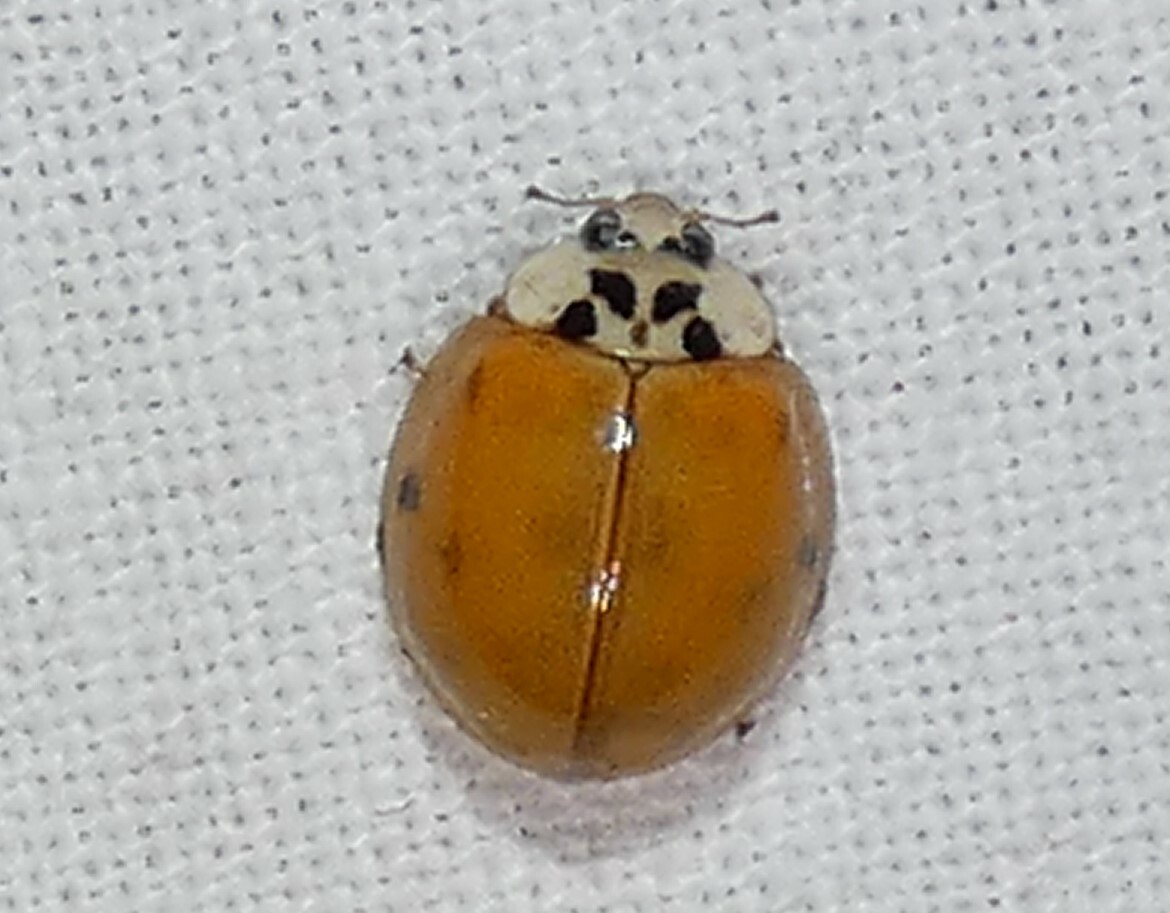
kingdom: Animalia
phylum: Arthropoda
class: Insecta
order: Coleoptera
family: Coccinellidae
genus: Harmonia
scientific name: Harmonia axyridis
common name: Harlequin ladybird
